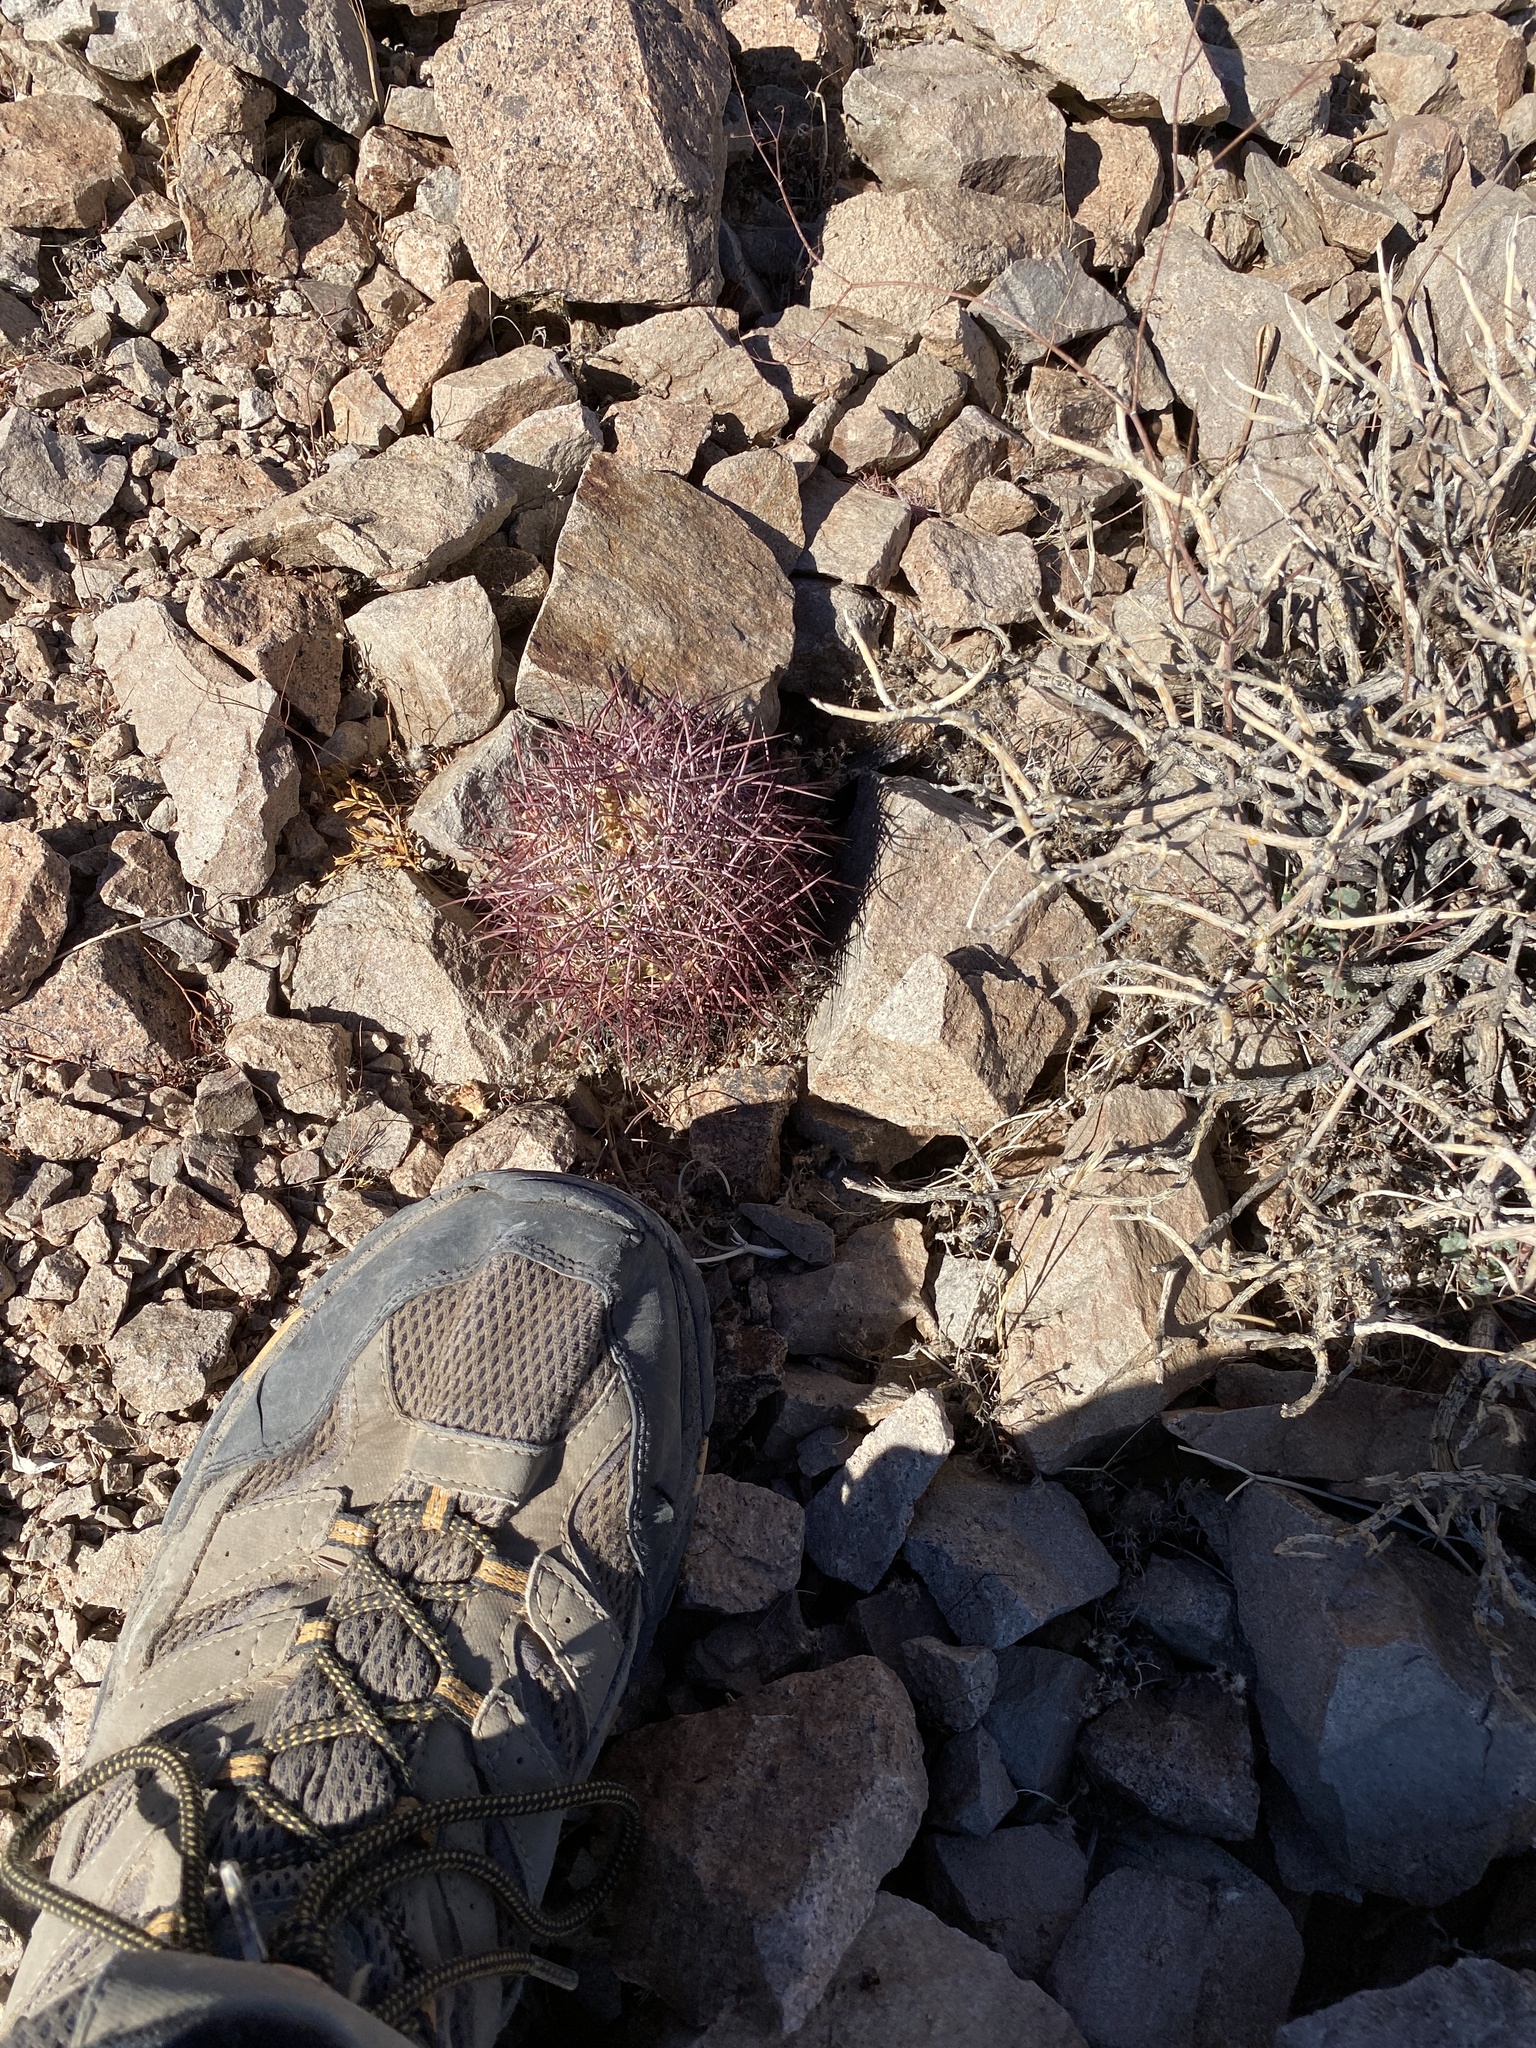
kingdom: Plantae
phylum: Tracheophyta
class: Magnoliopsida
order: Caryophyllales
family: Cactaceae
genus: Sclerocactus
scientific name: Sclerocactus johnsonii
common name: Eight-spine fishhook cactus
